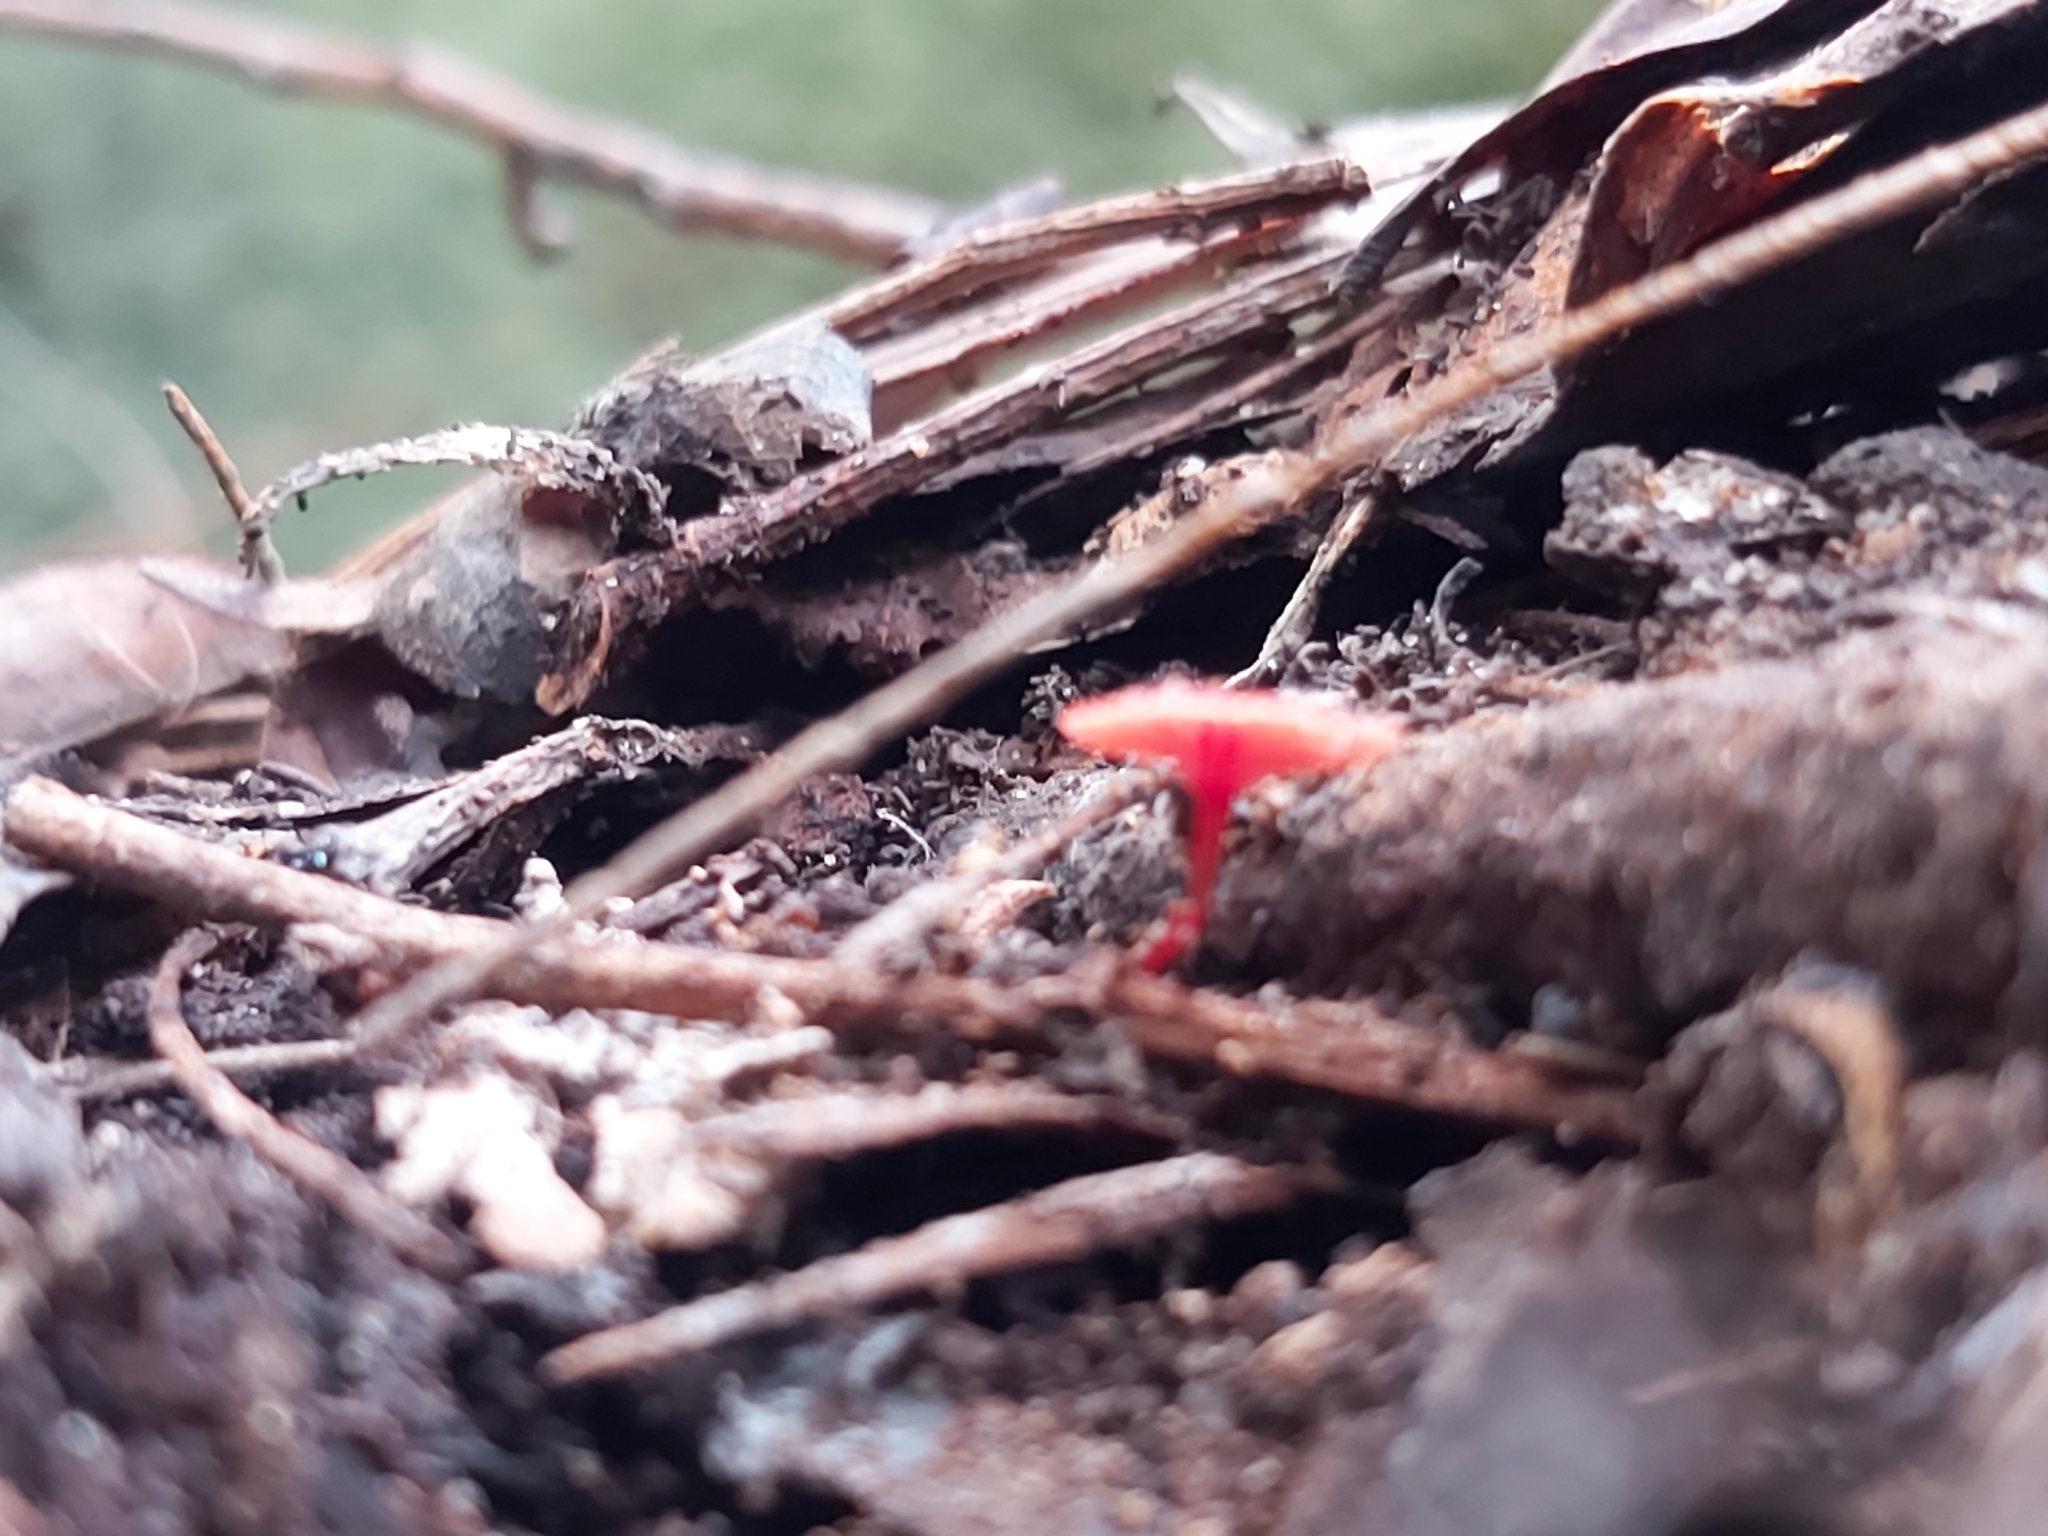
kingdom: Fungi
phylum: Basidiomycota
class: Agaricomycetes
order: Agaricales
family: Mycenaceae
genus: Cruentomycena
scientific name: Cruentomycena viscidocruenta
